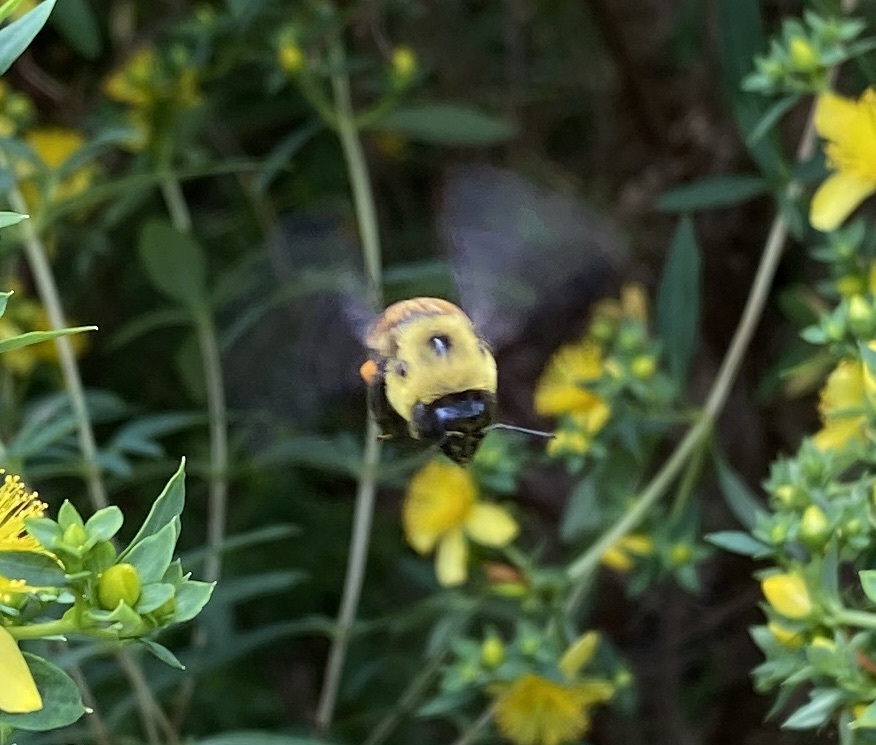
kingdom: Animalia
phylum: Arthropoda
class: Insecta
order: Hymenoptera
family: Apidae
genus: Bombus
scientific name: Bombus griseocollis
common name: Brown-belted bumble bee
